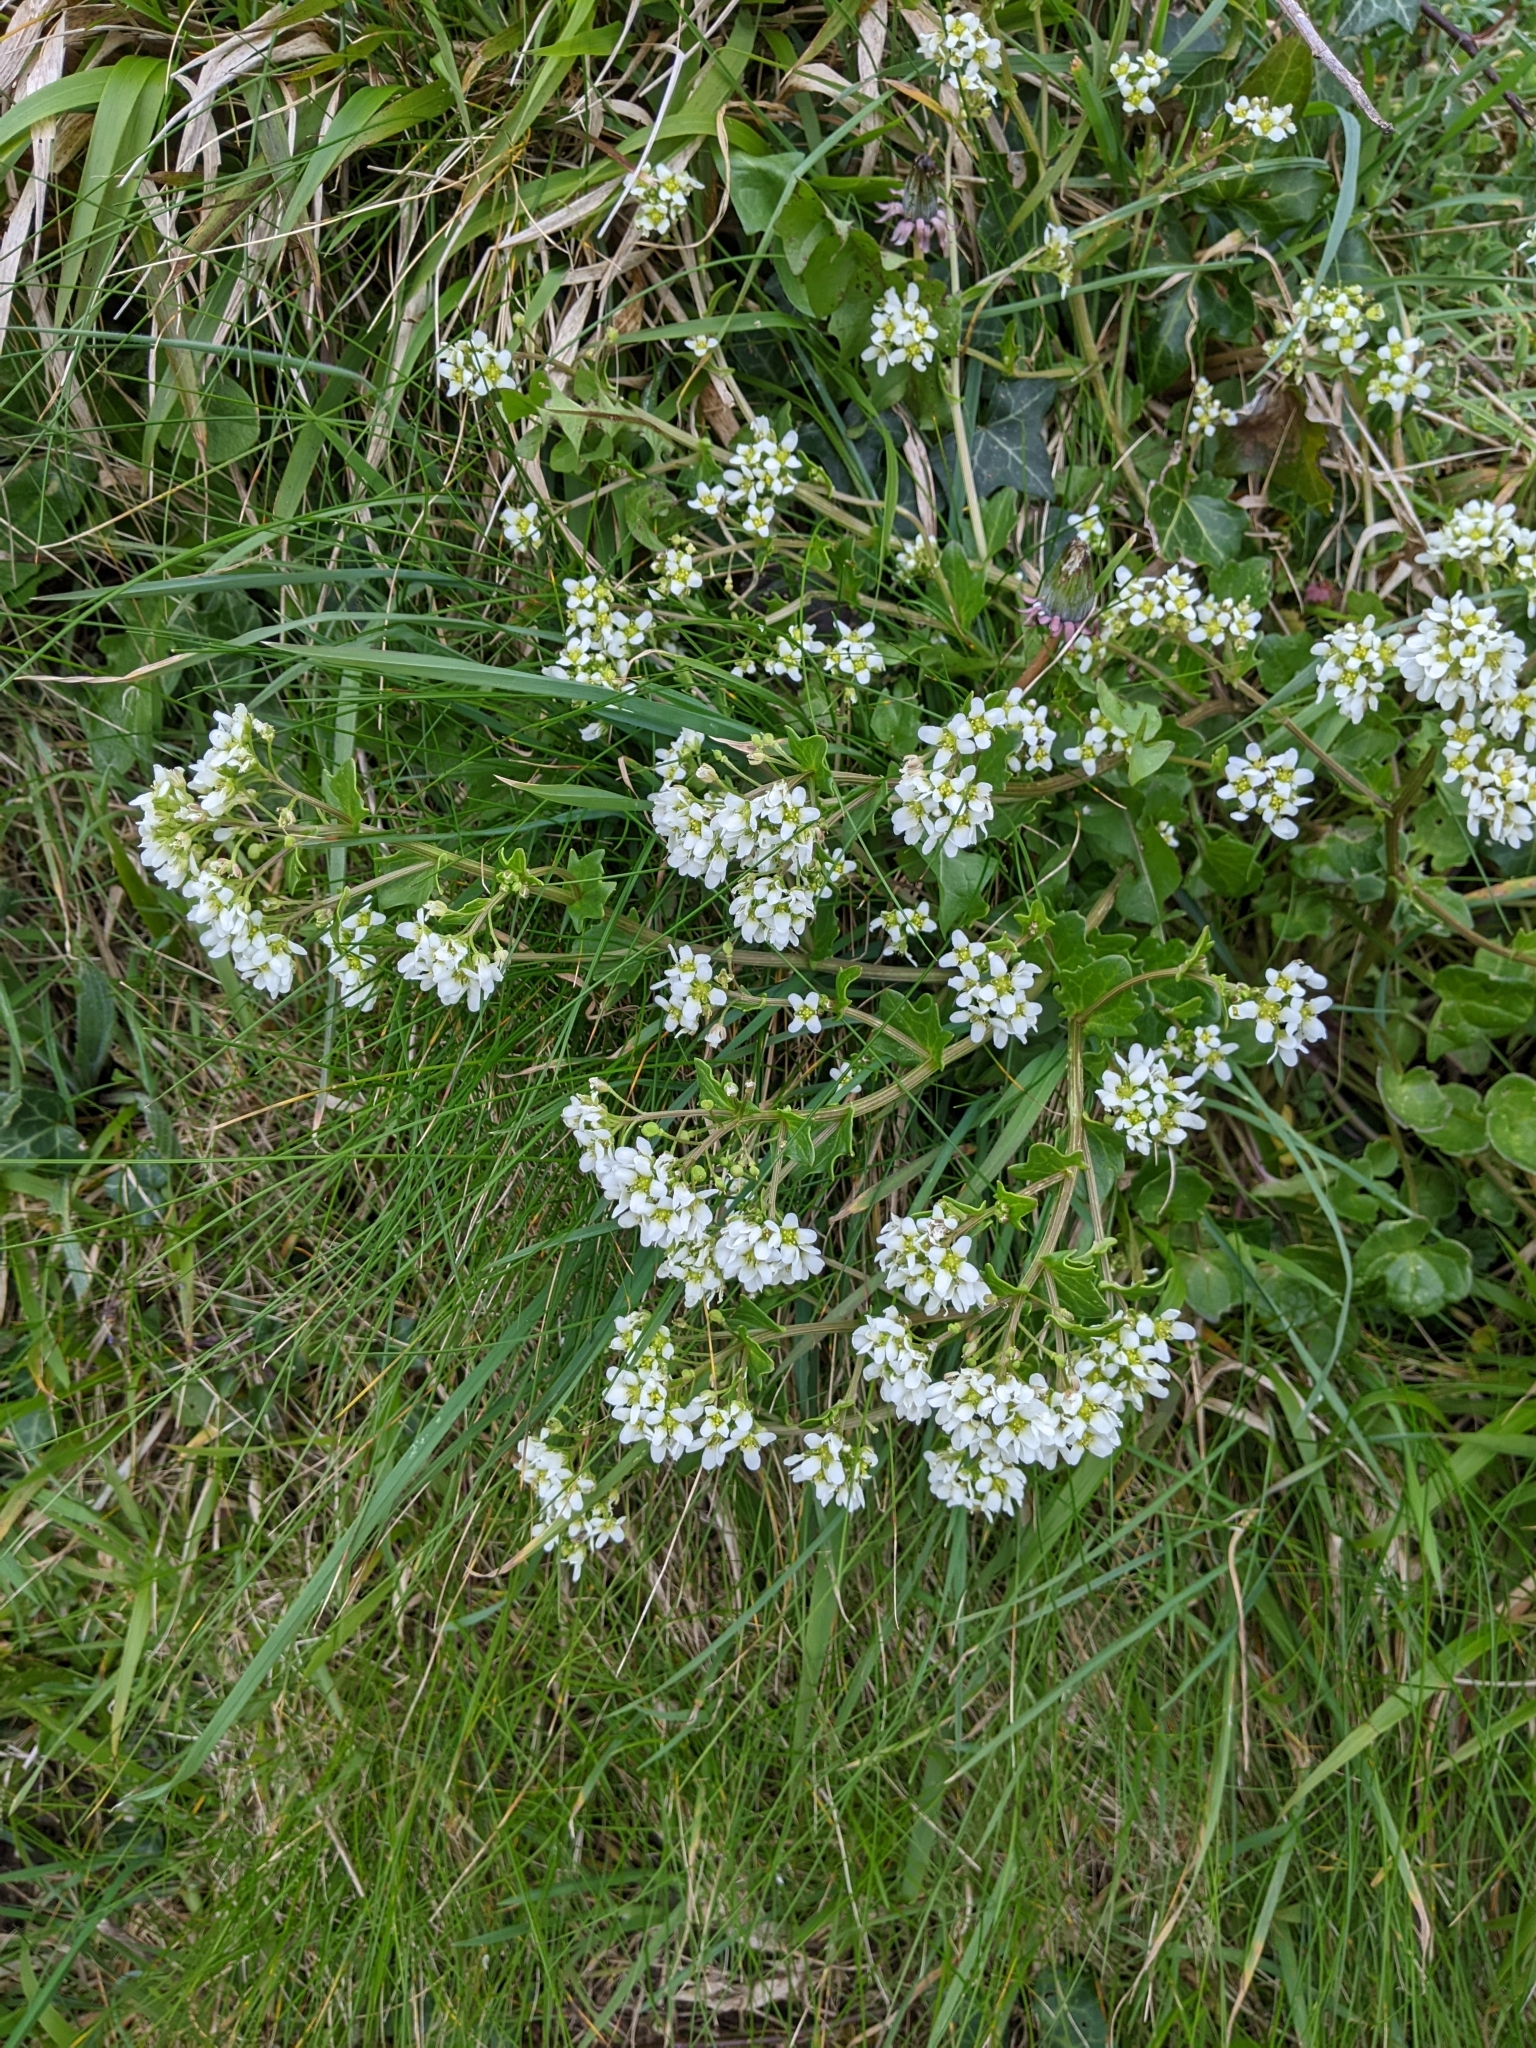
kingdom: Plantae
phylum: Tracheophyta
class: Magnoliopsida
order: Brassicales
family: Brassicaceae
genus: Cochlearia
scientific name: Cochlearia officinalis
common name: Scurvy-grass
